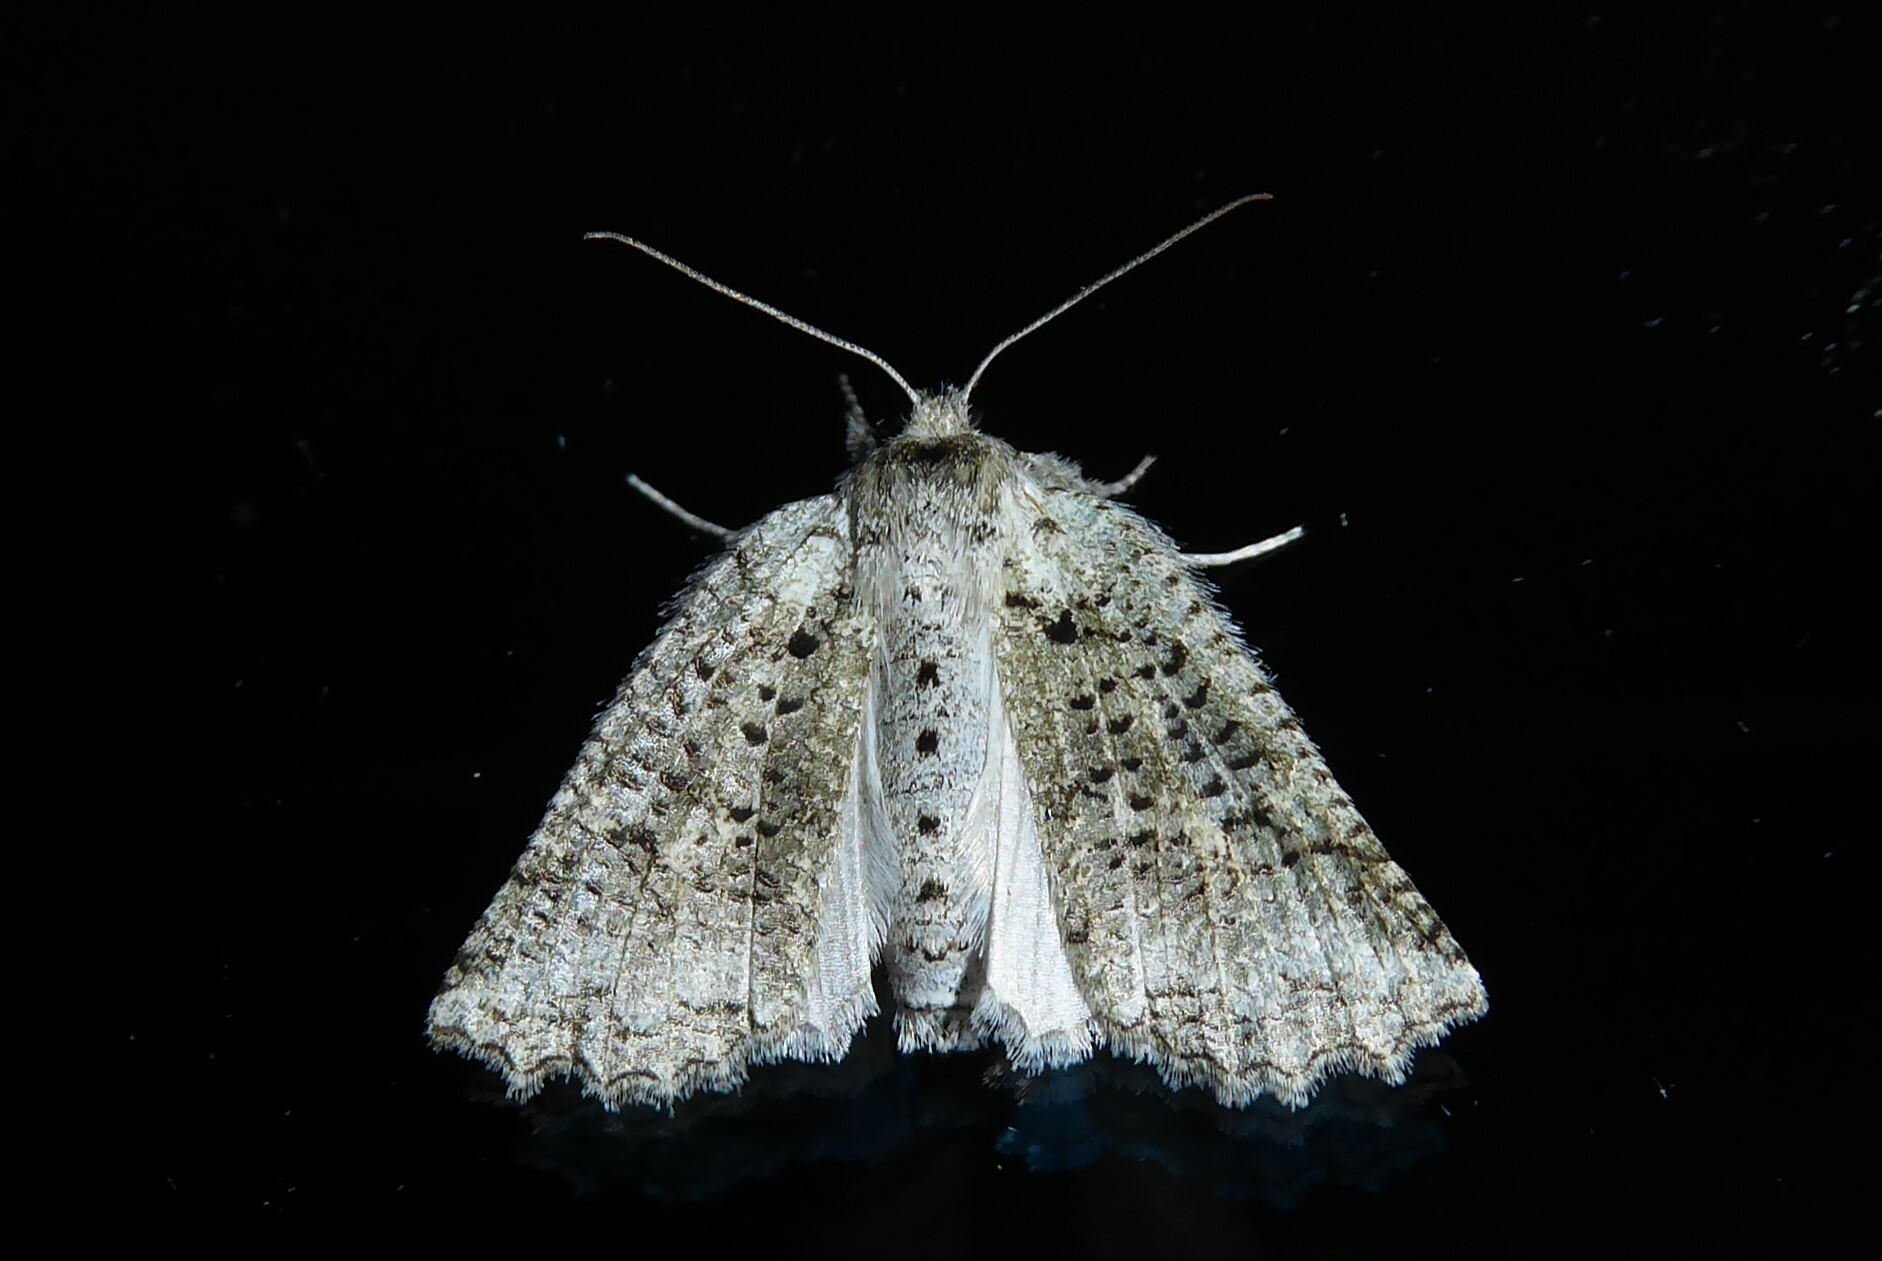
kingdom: Animalia
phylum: Arthropoda
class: Insecta
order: Lepidoptera
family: Geometridae
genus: Declana
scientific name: Declana floccosa
